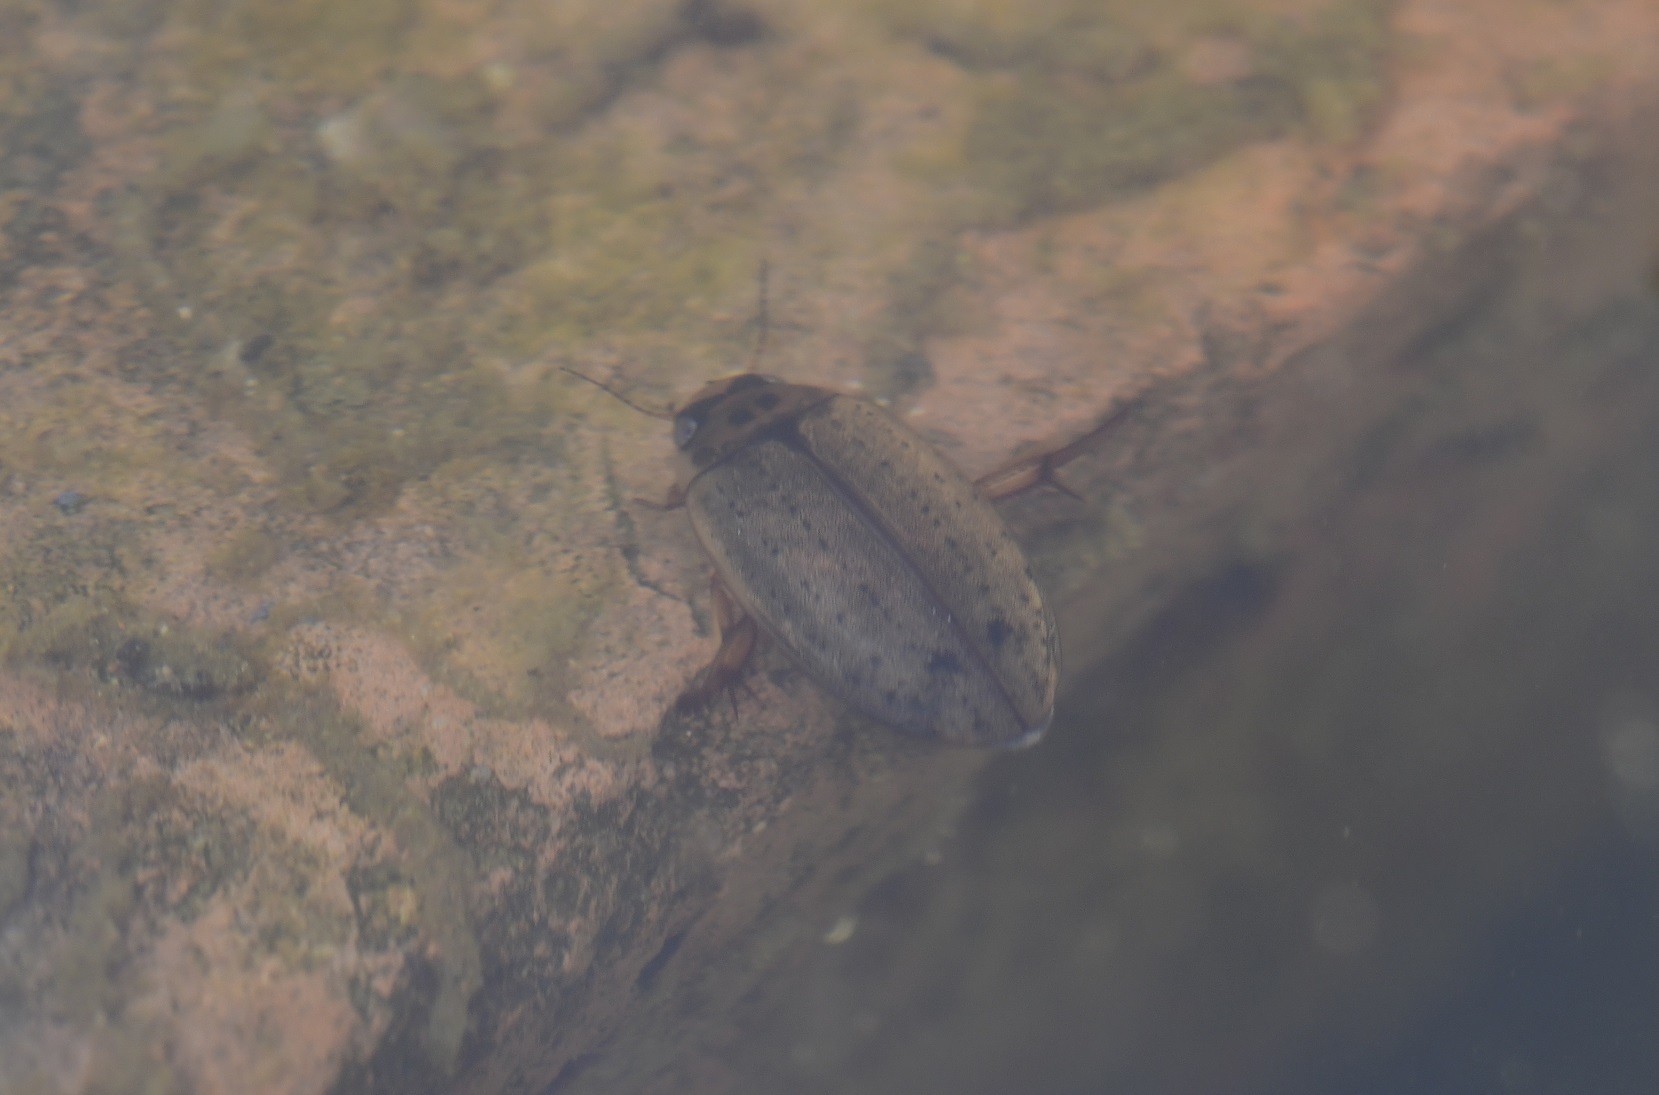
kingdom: Animalia
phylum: Arthropoda
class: Insecta
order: Coleoptera
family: Dytiscidae
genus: Rhantus
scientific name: Rhantus
